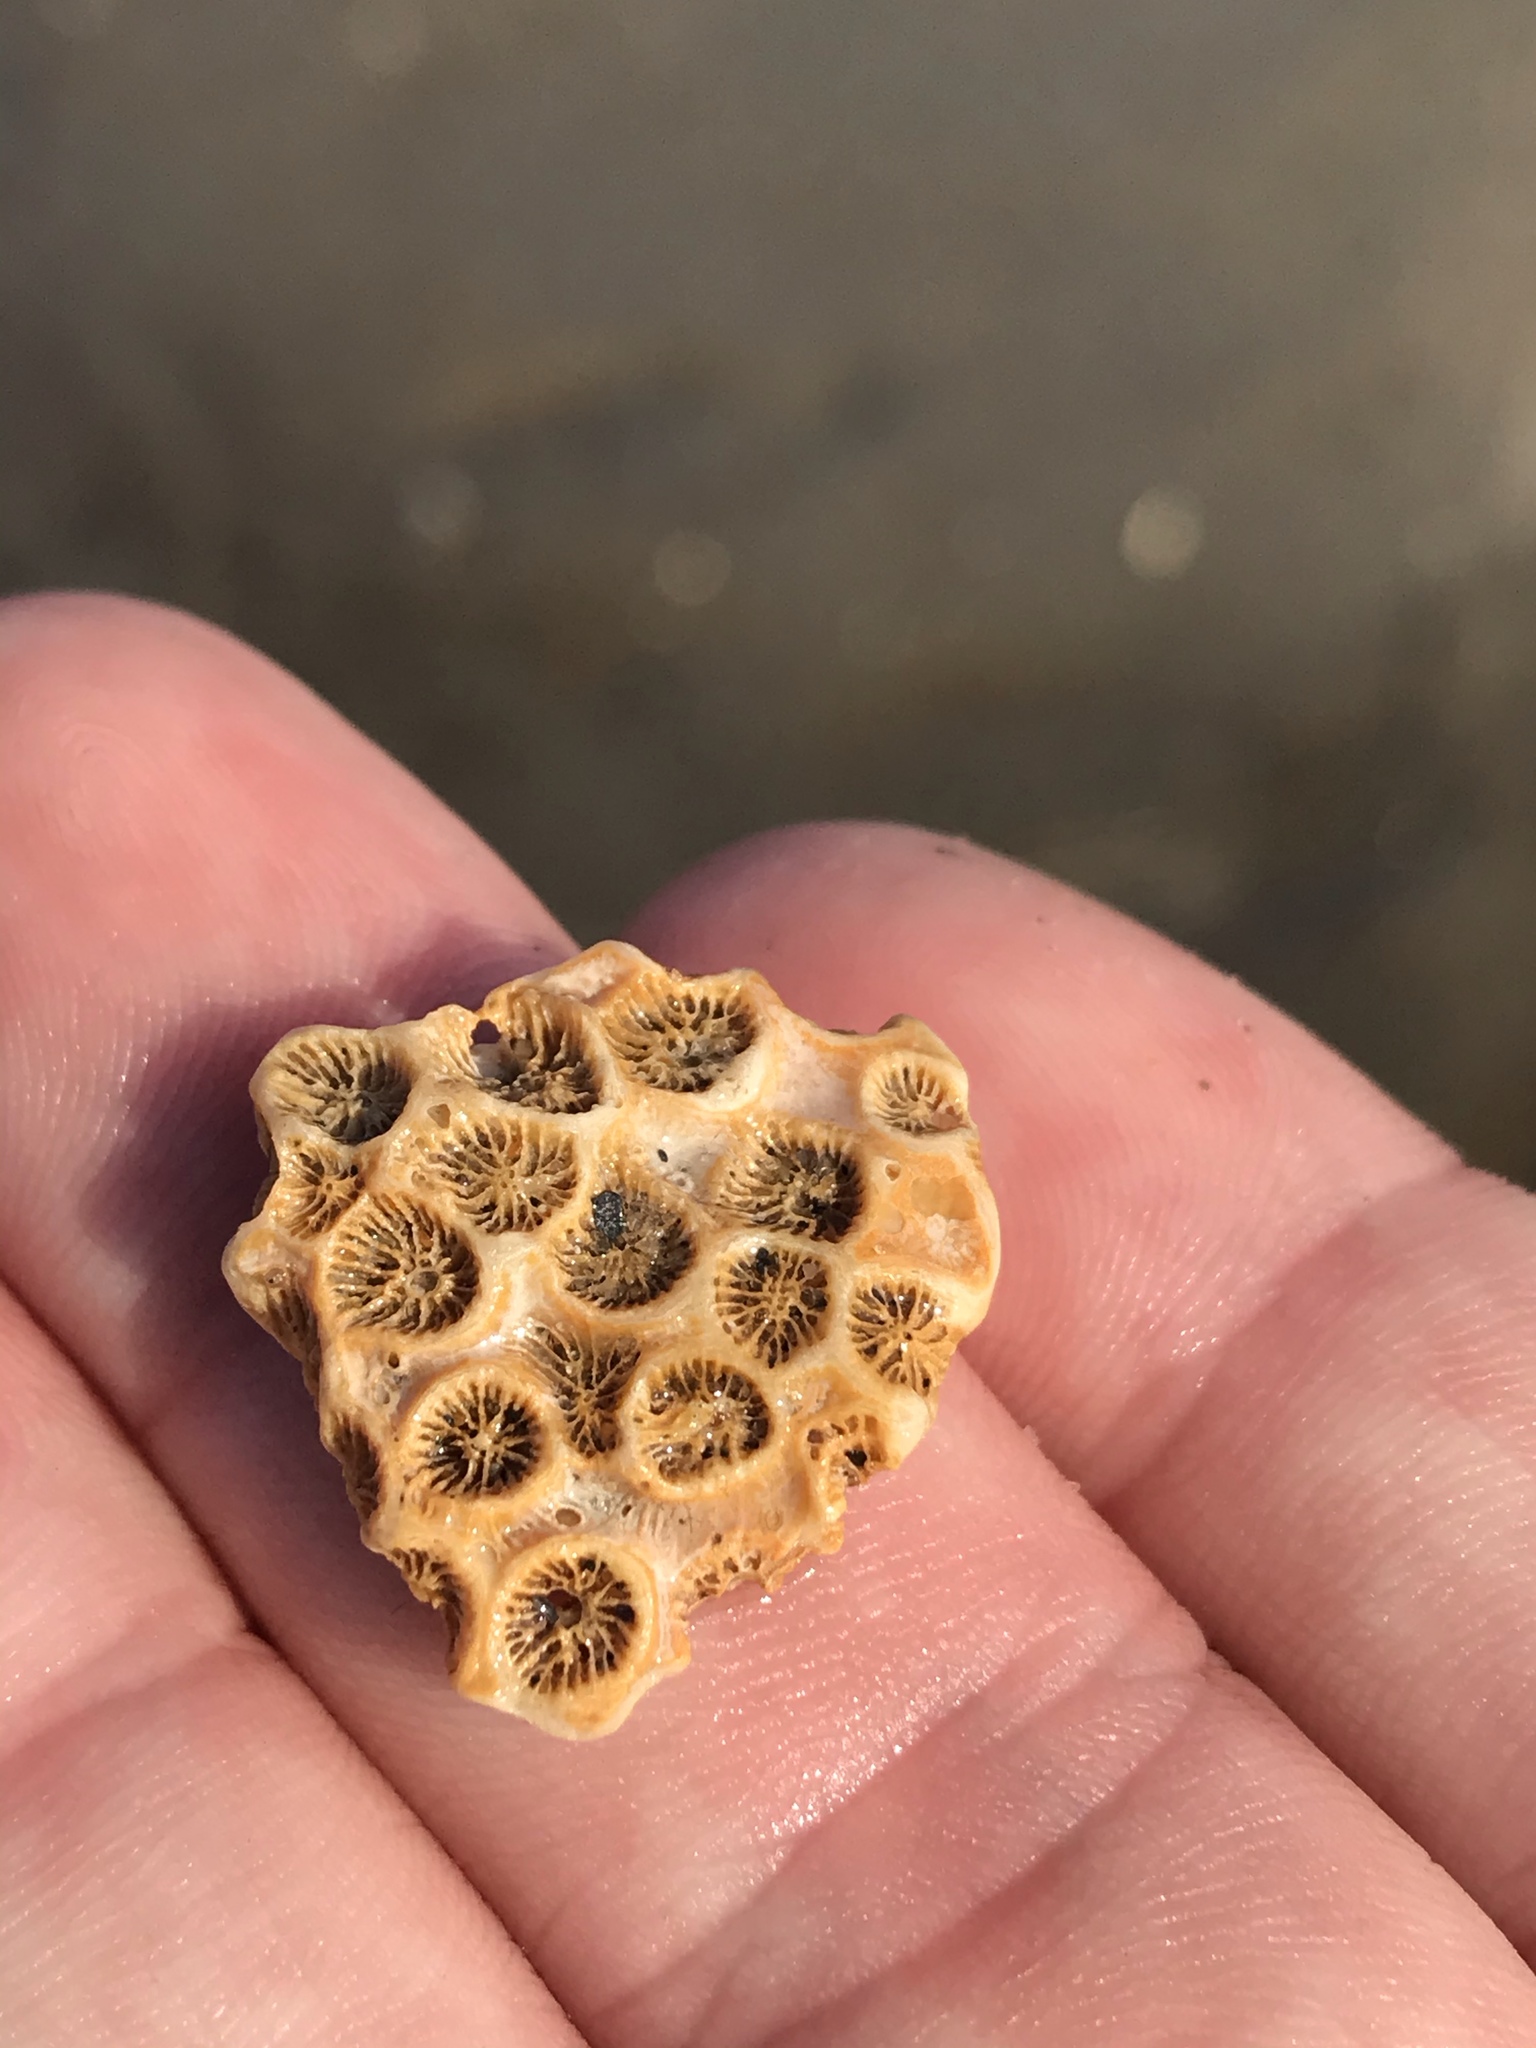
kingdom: Animalia
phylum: Cnidaria
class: Anthozoa
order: Scleractinia
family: Astrangiidae
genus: Astrangia
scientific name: Astrangia poculata
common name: Northern star coral
